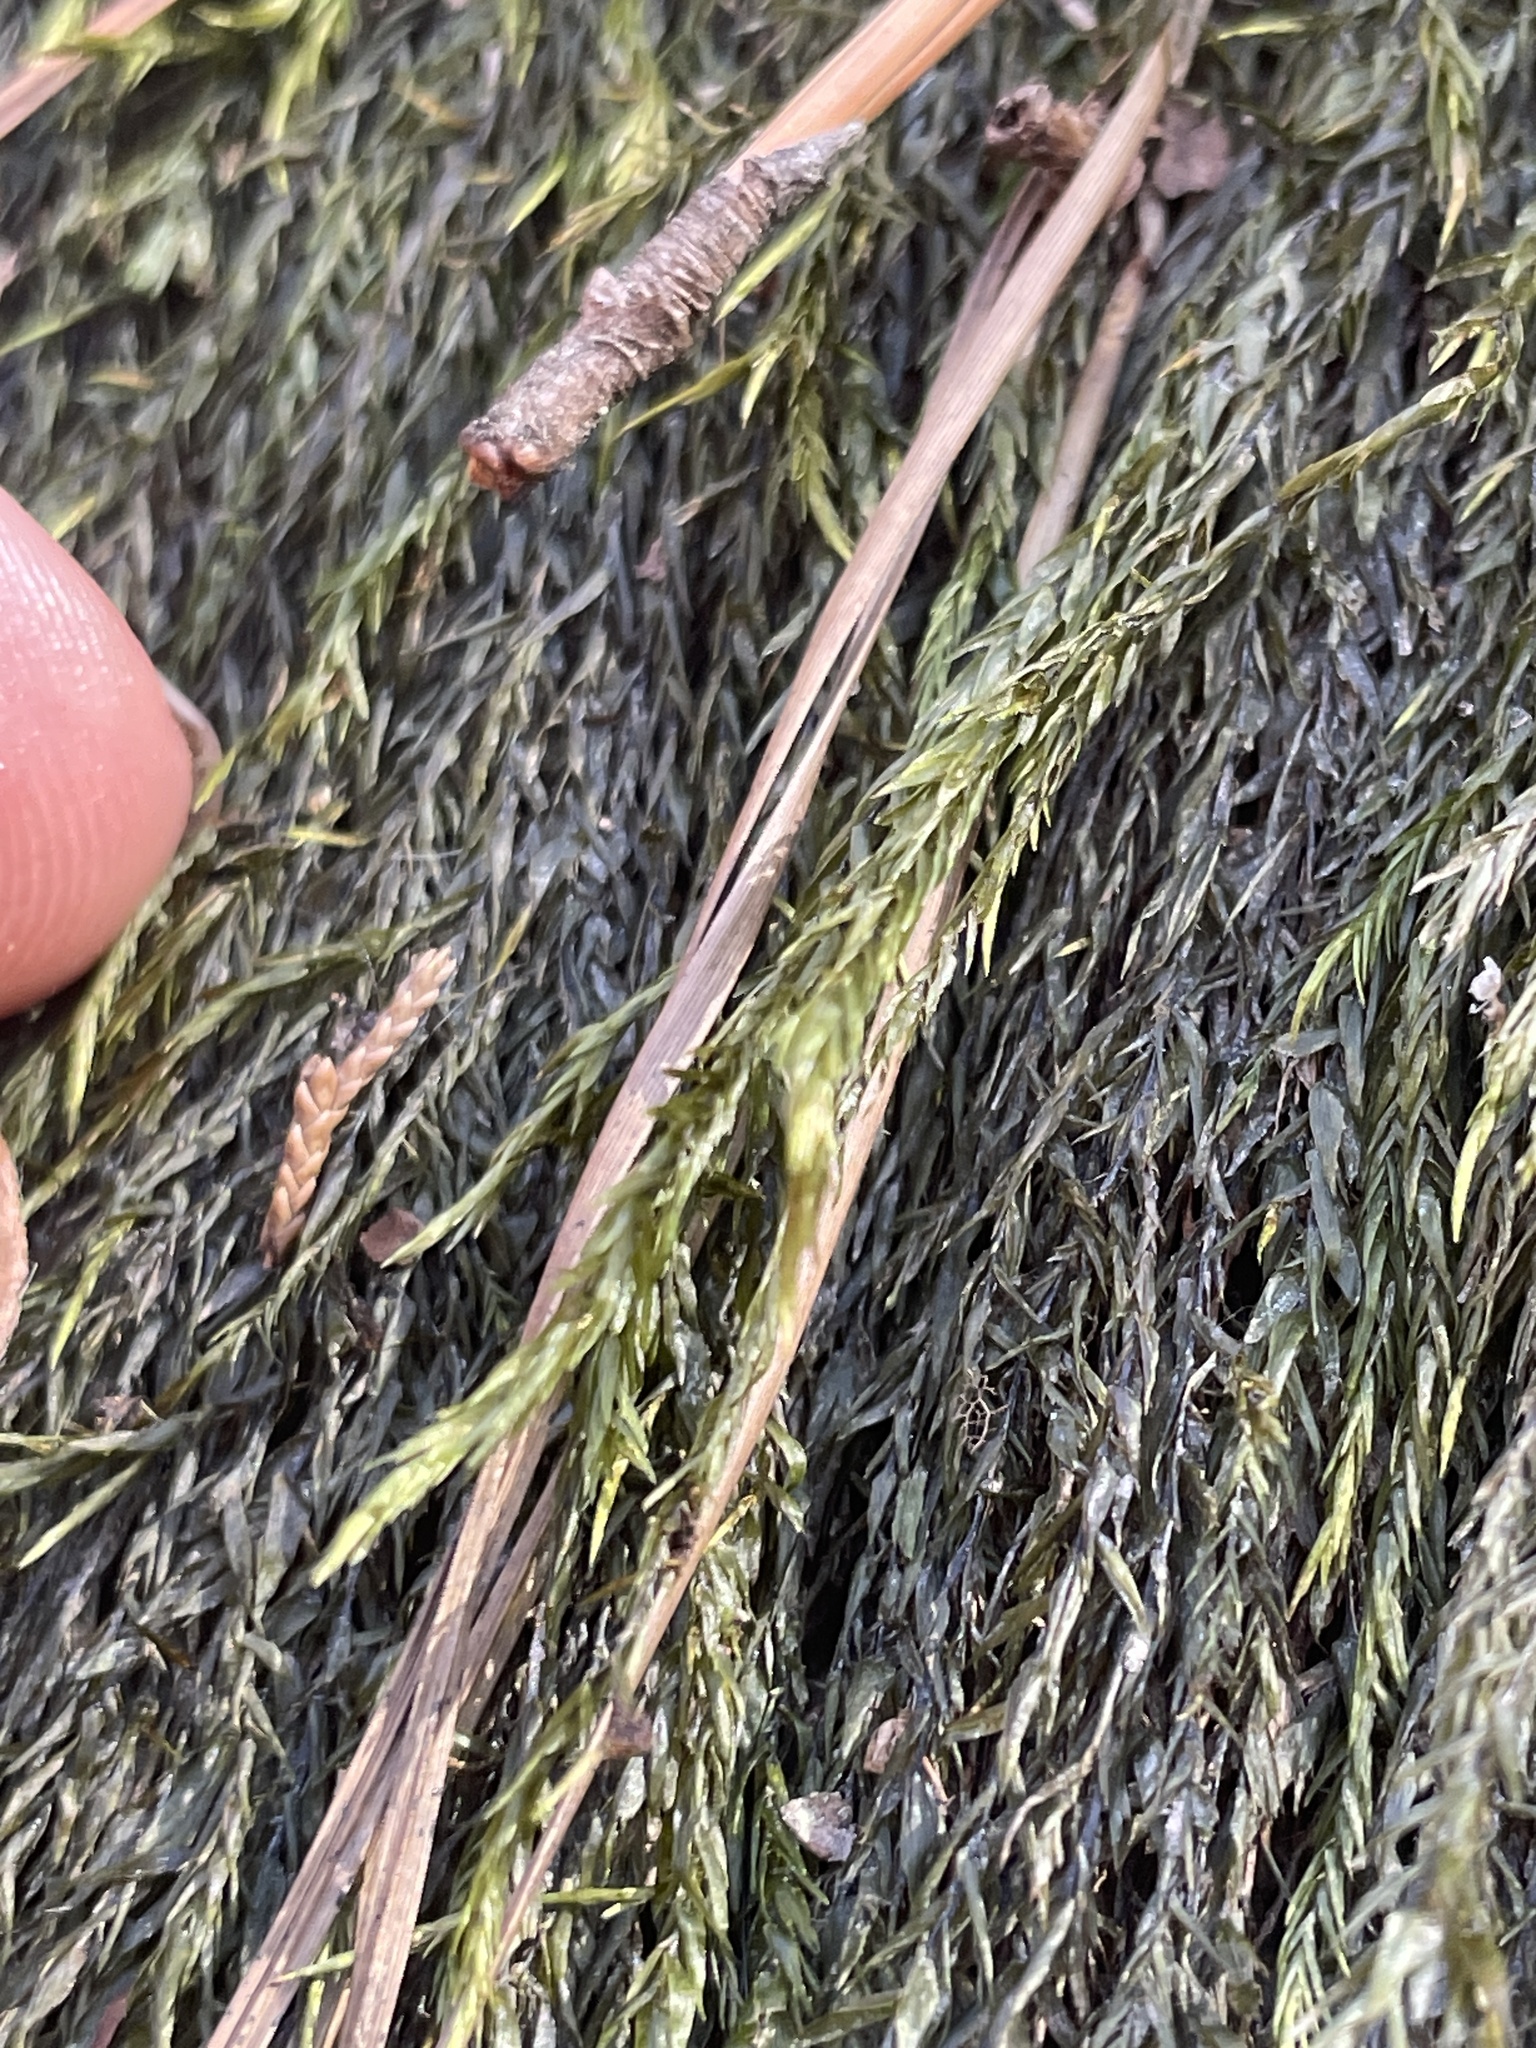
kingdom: Plantae
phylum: Bryophyta
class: Bryopsida
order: Hypnales
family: Fontinalaceae
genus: Fontinalis
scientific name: Fontinalis sphagnifolia
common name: Sphagnum-like water moss
